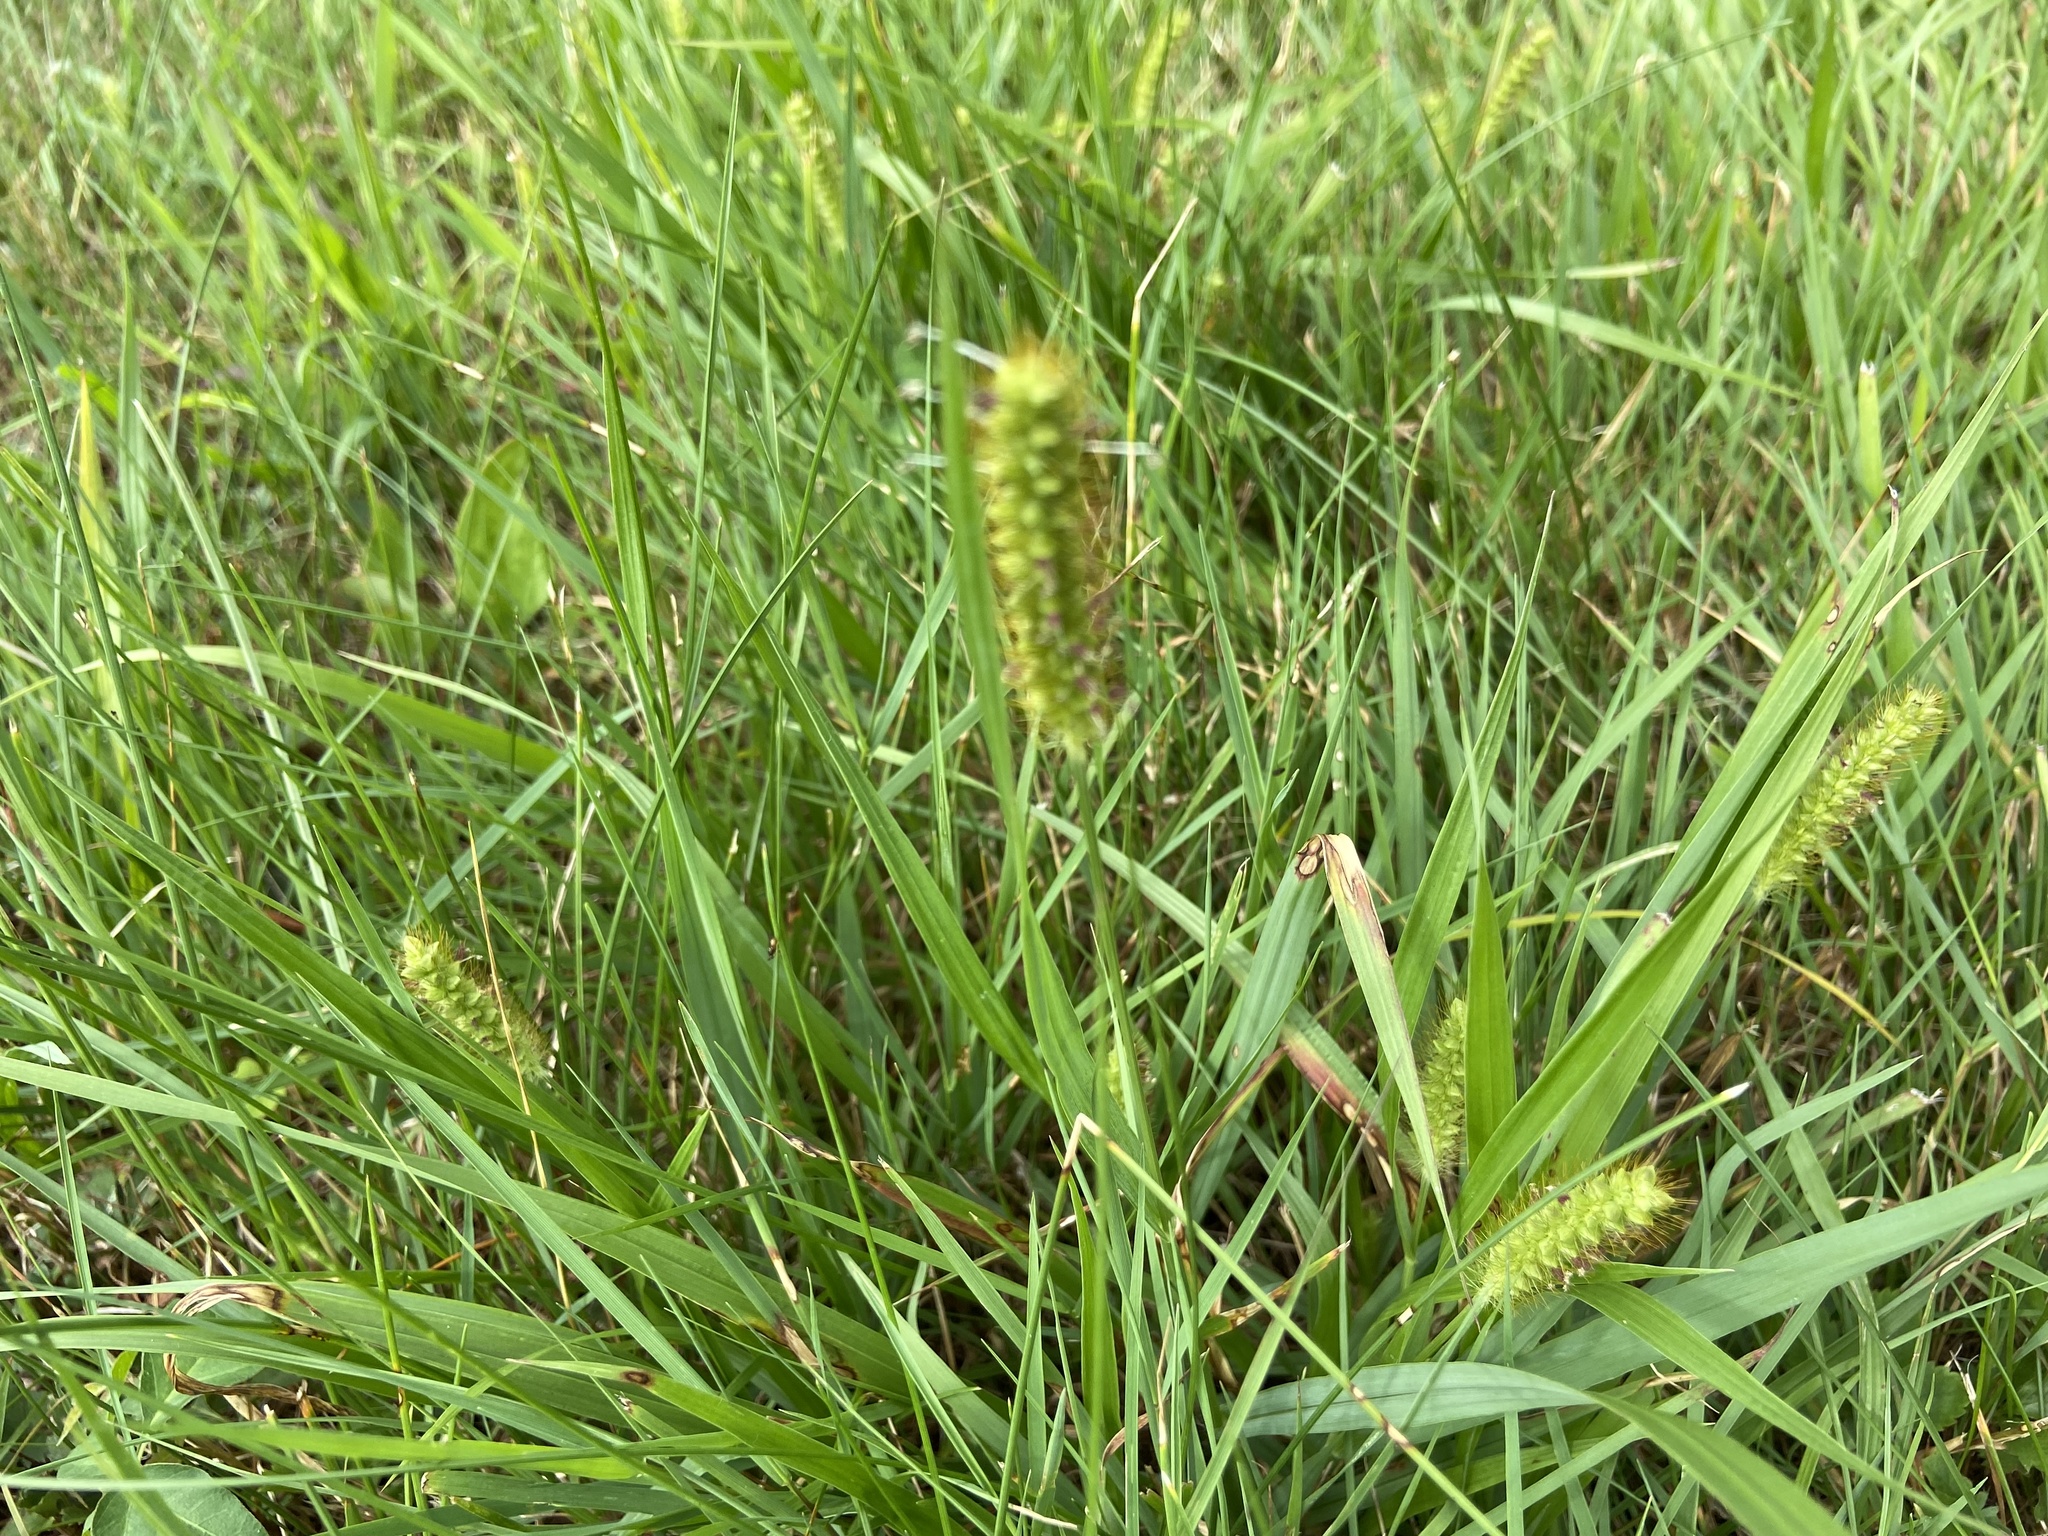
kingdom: Plantae
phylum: Tracheophyta
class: Liliopsida
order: Poales
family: Poaceae
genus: Setaria
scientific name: Setaria pumila
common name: Yellow bristle-grass
